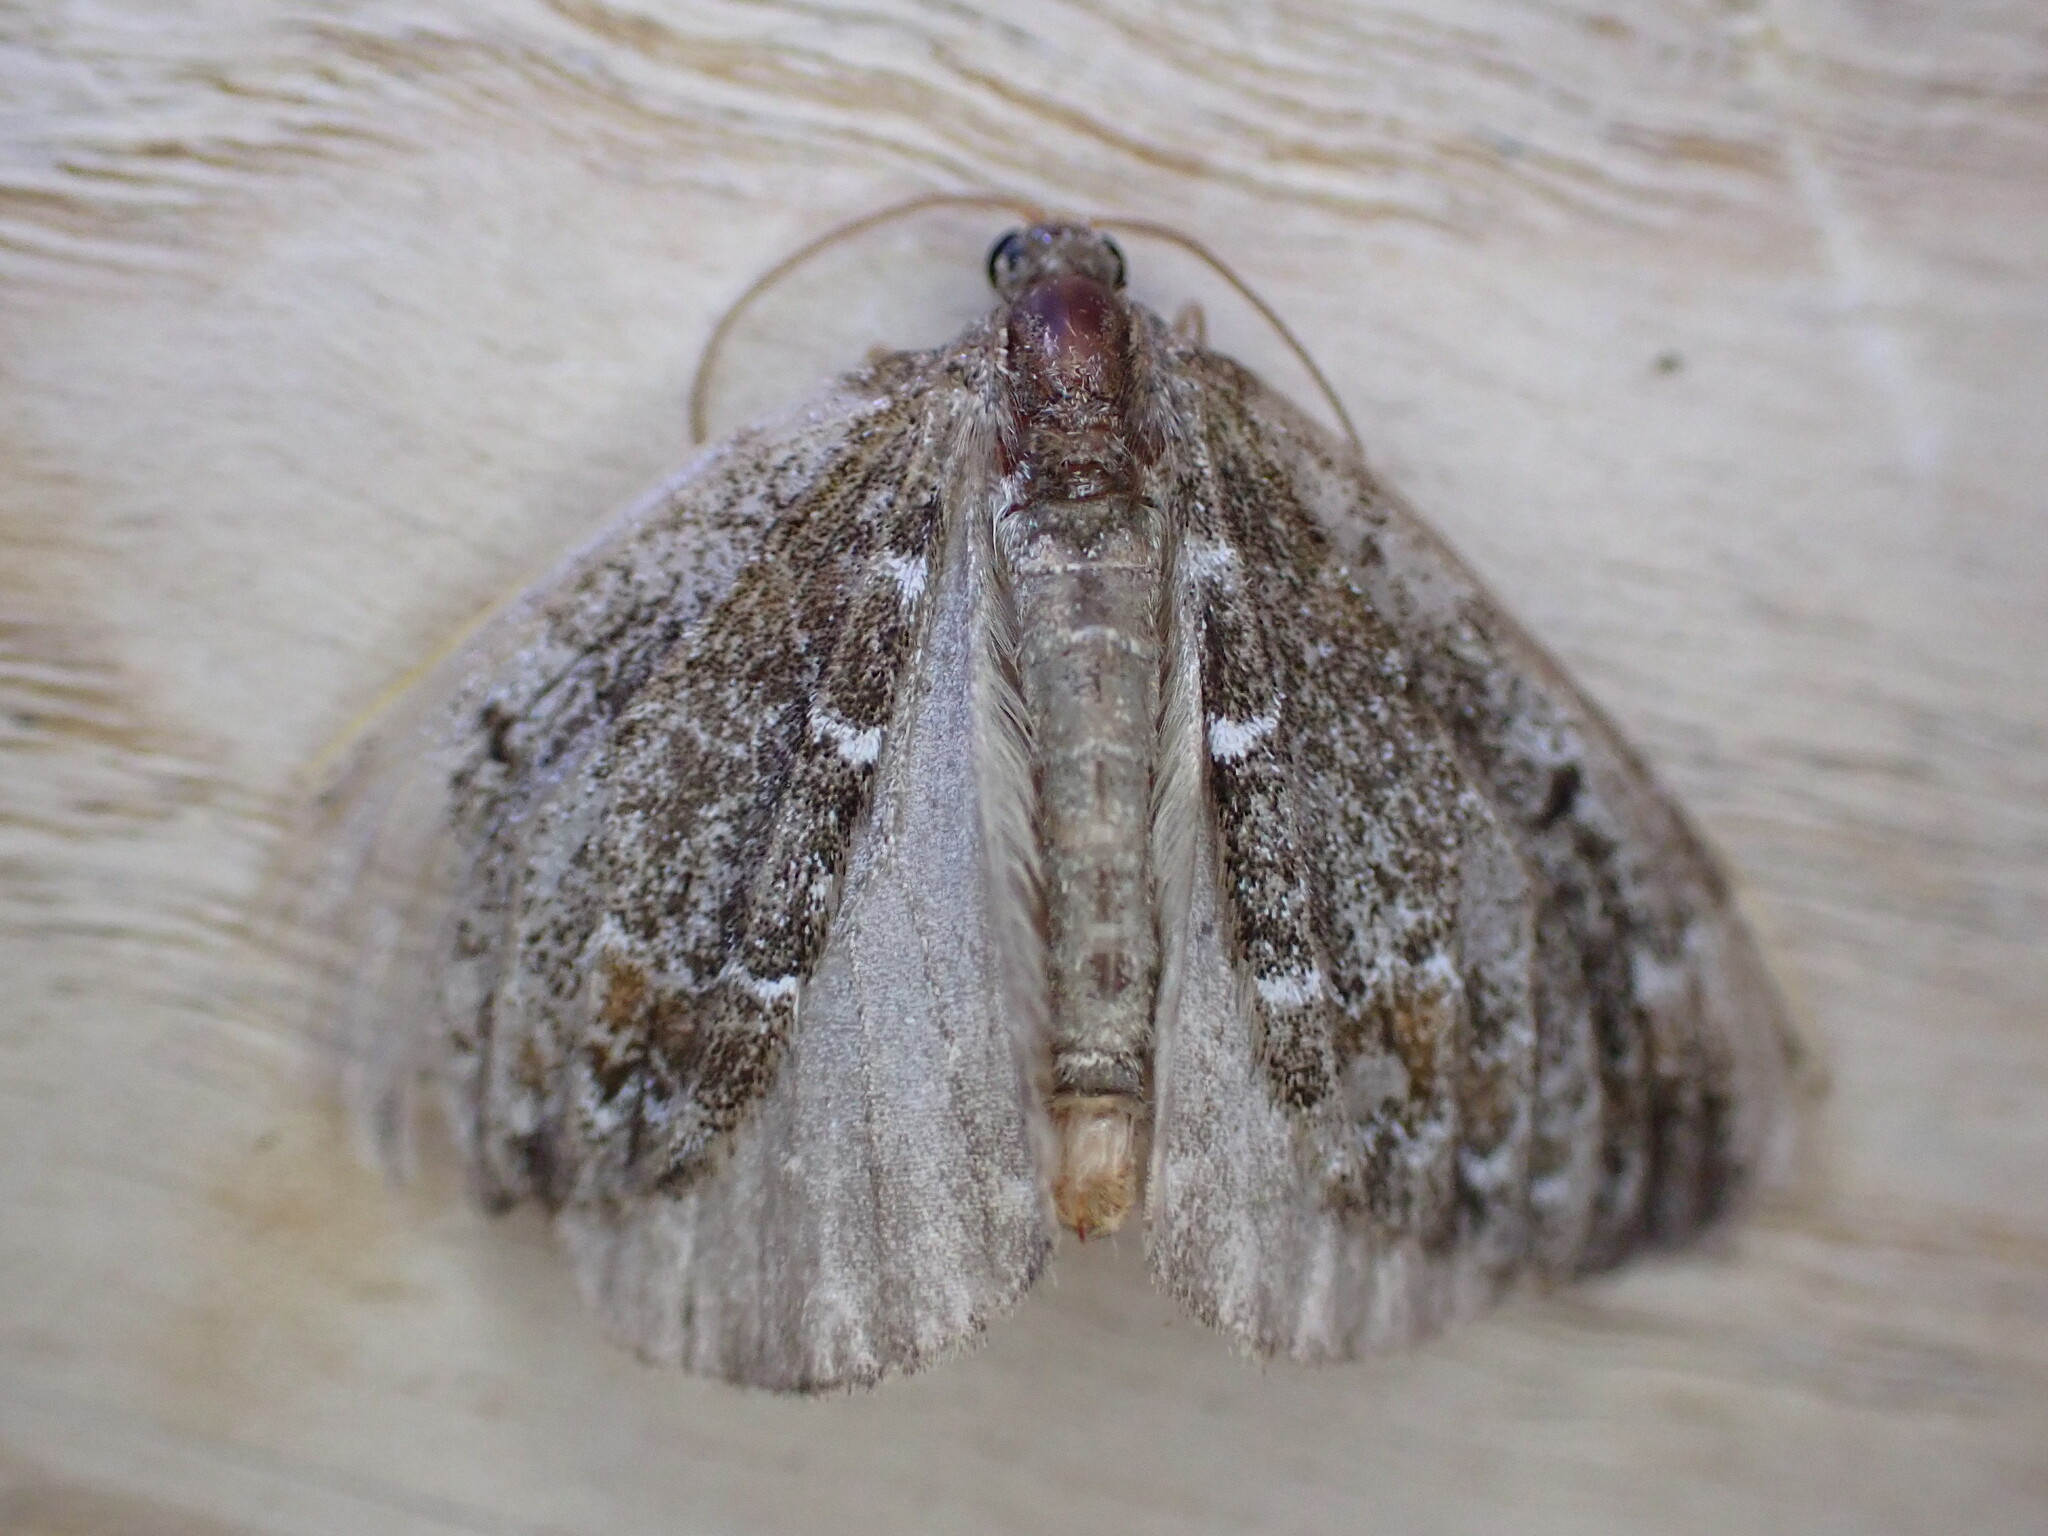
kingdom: Animalia
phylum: Arthropoda
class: Insecta
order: Lepidoptera
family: Geometridae
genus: Dysstroma
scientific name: Dysstroma truncata
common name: Common marbled carpet
